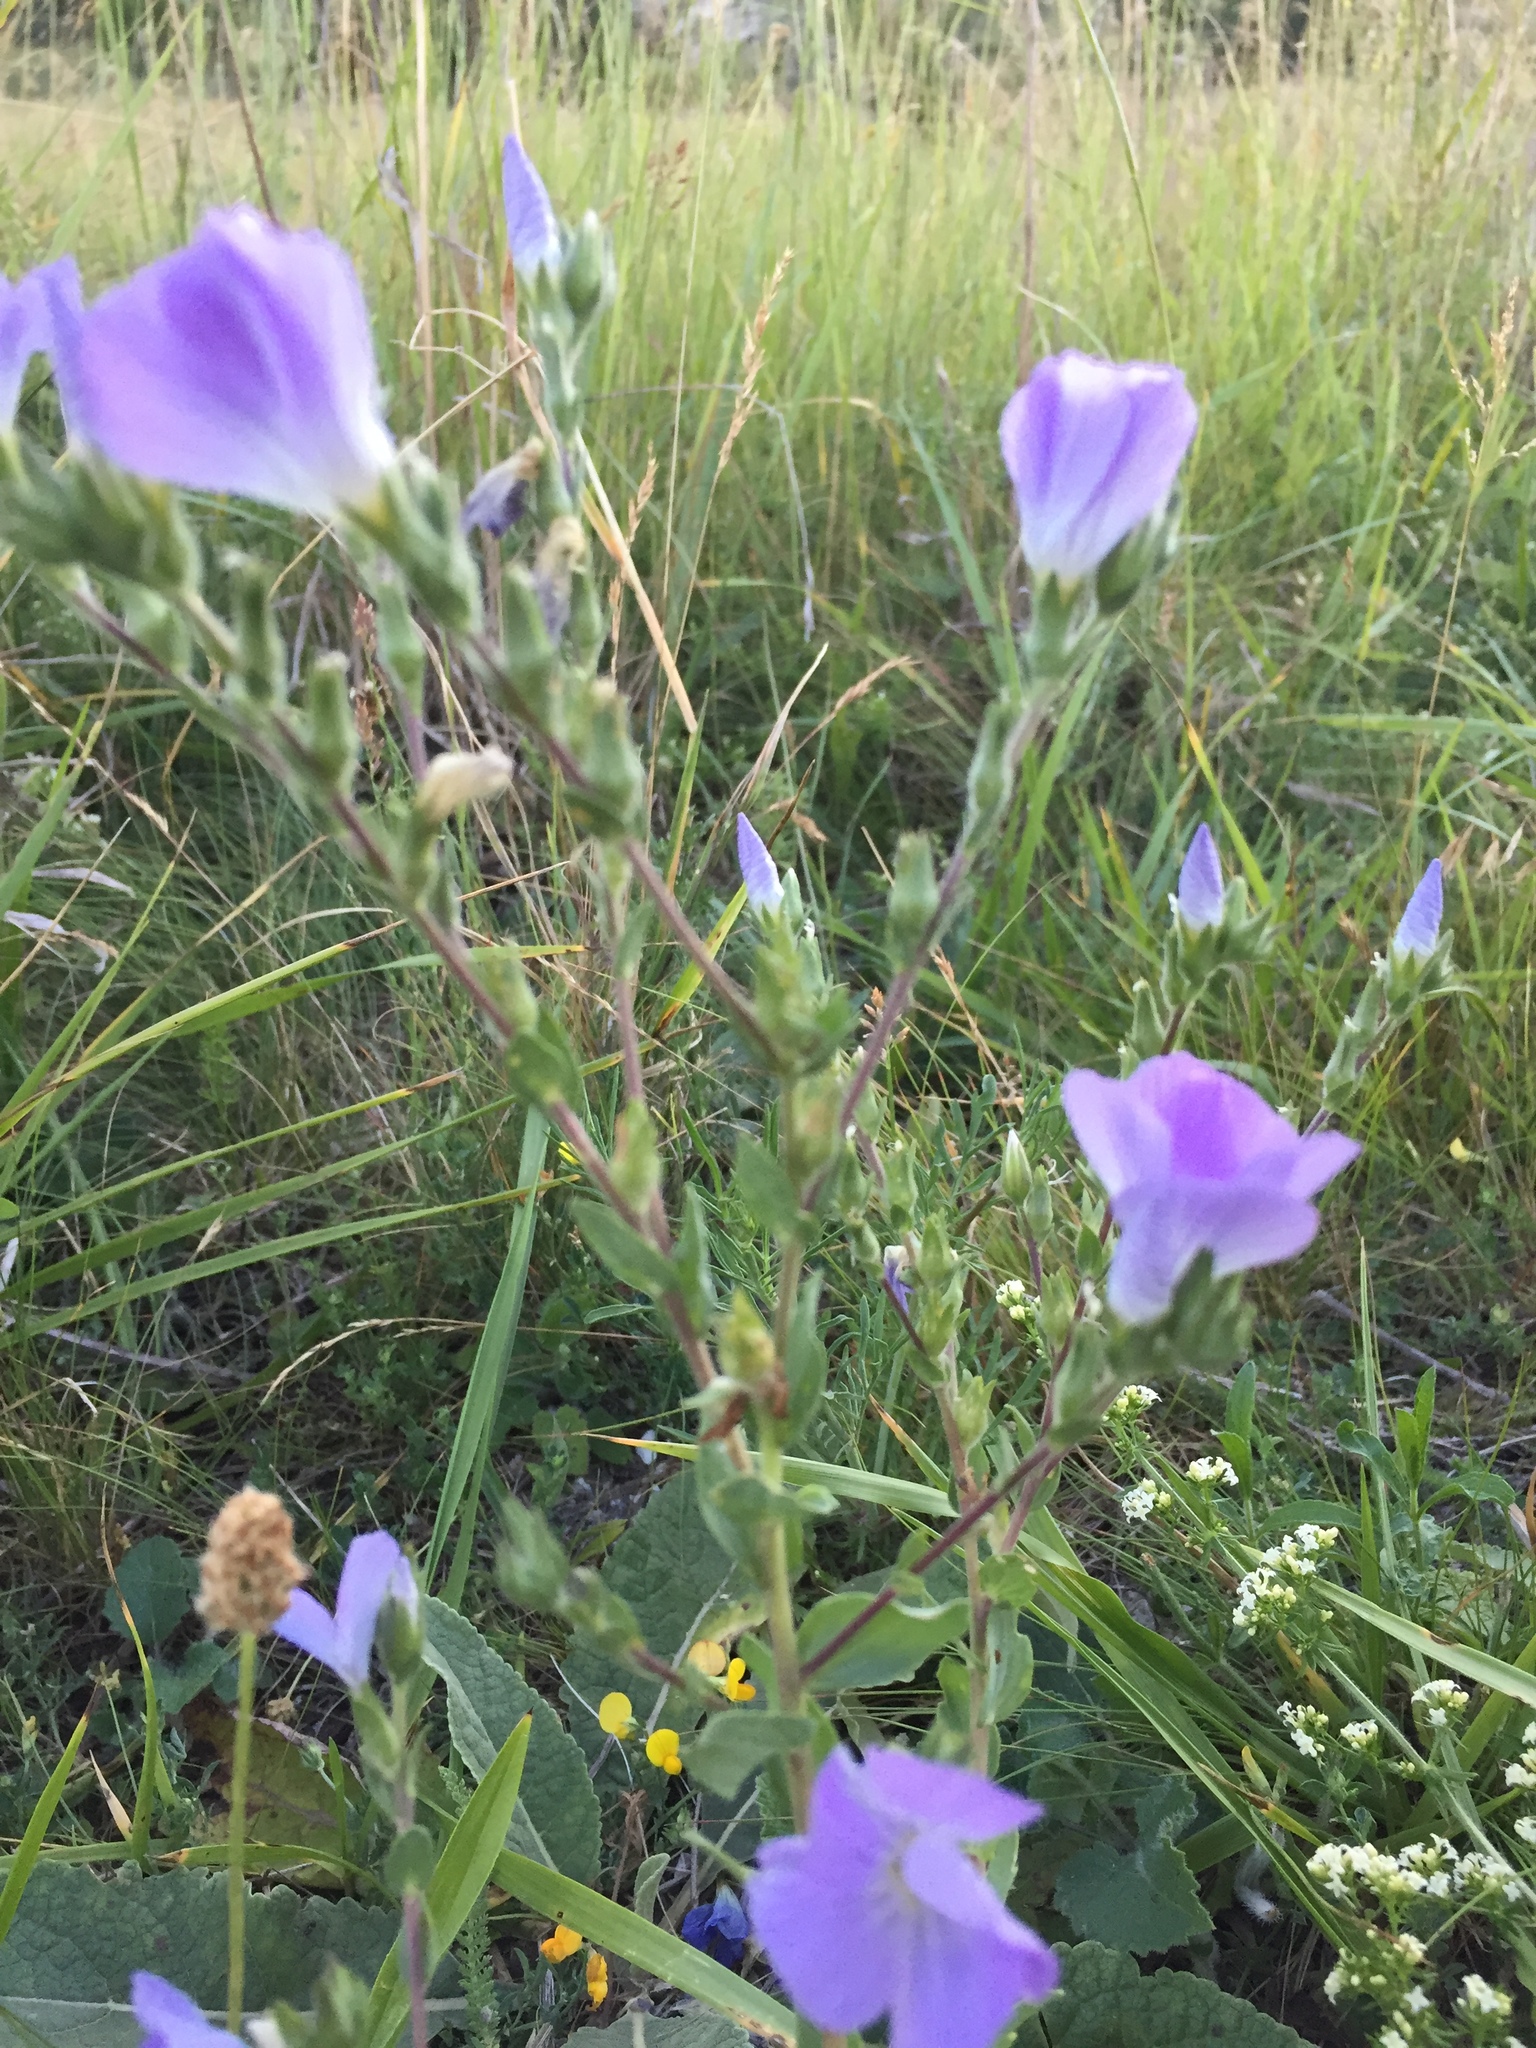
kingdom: Plantae
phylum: Tracheophyta
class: Magnoliopsida
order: Malpighiales
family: Linaceae
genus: Linum
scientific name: Linum hirsutum
